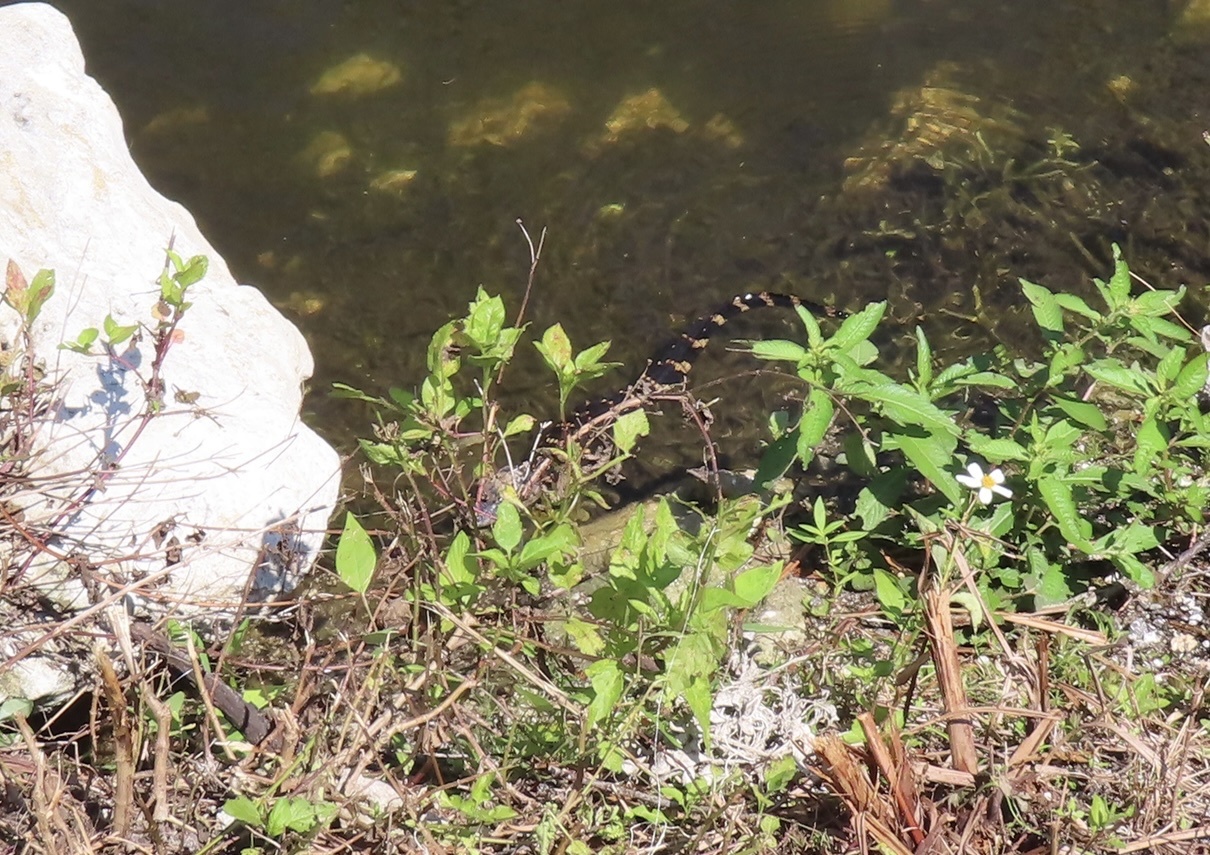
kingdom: Animalia
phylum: Chordata
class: Crocodylia
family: Alligatoridae
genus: Alligator
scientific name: Alligator mississippiensis
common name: American alligator
